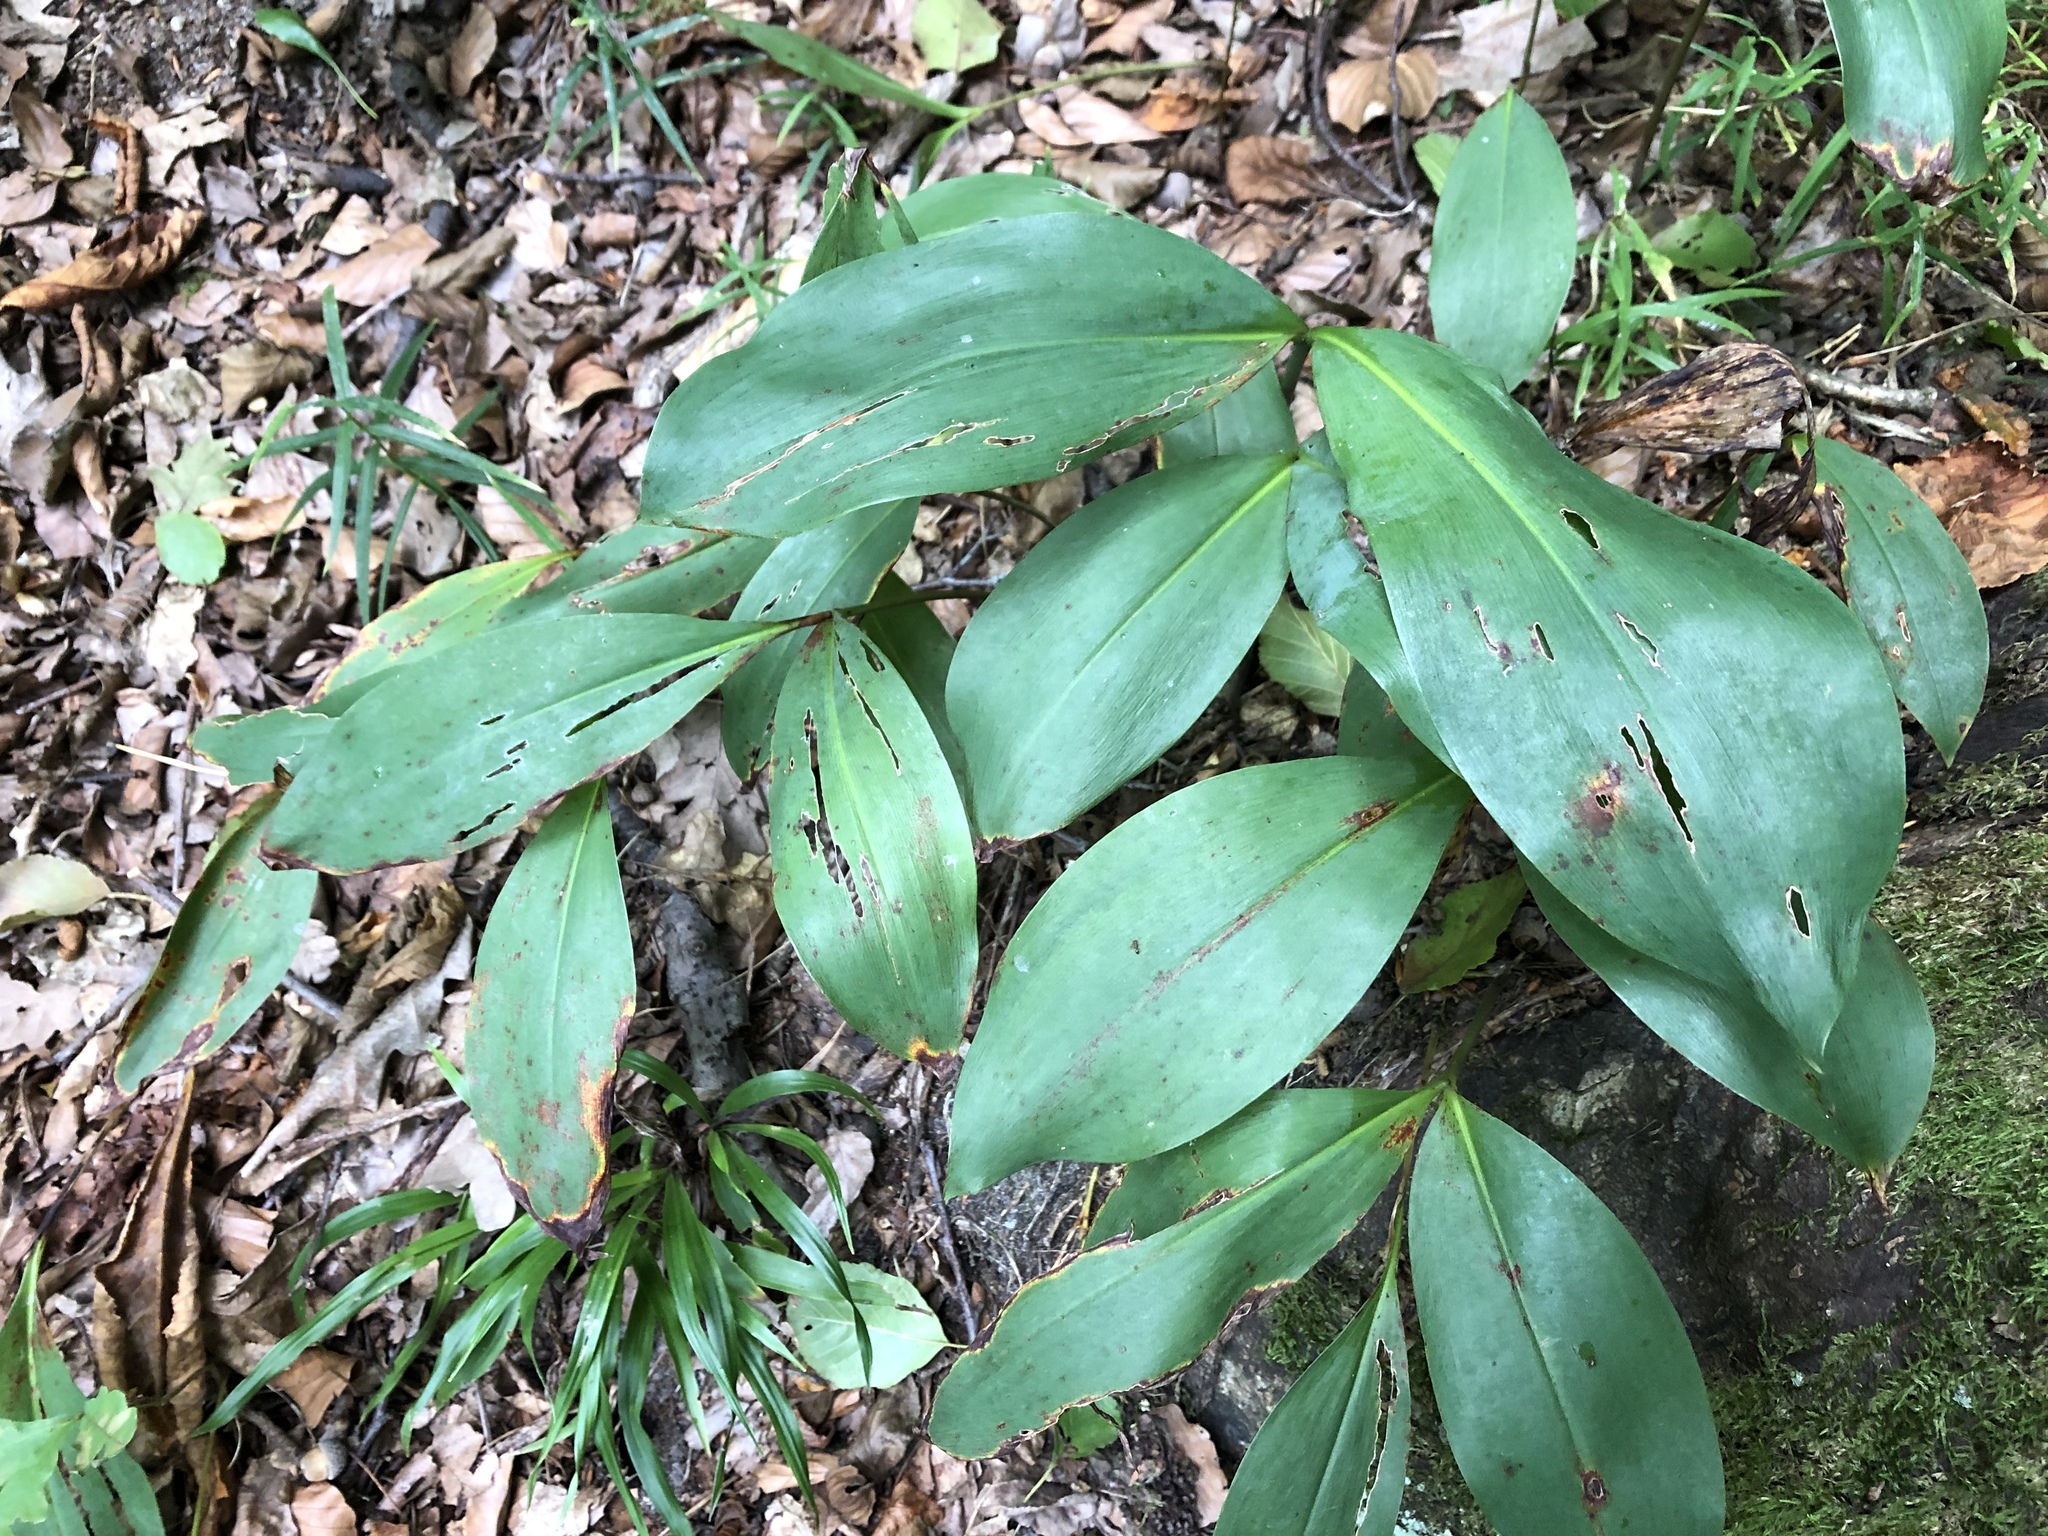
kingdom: Plantae
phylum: Tracheophyta
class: Liliopsida
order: Asparagales
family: Asparagaceae
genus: Convallaria
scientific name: Convallaria majalis
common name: Lily-of-the-valley
